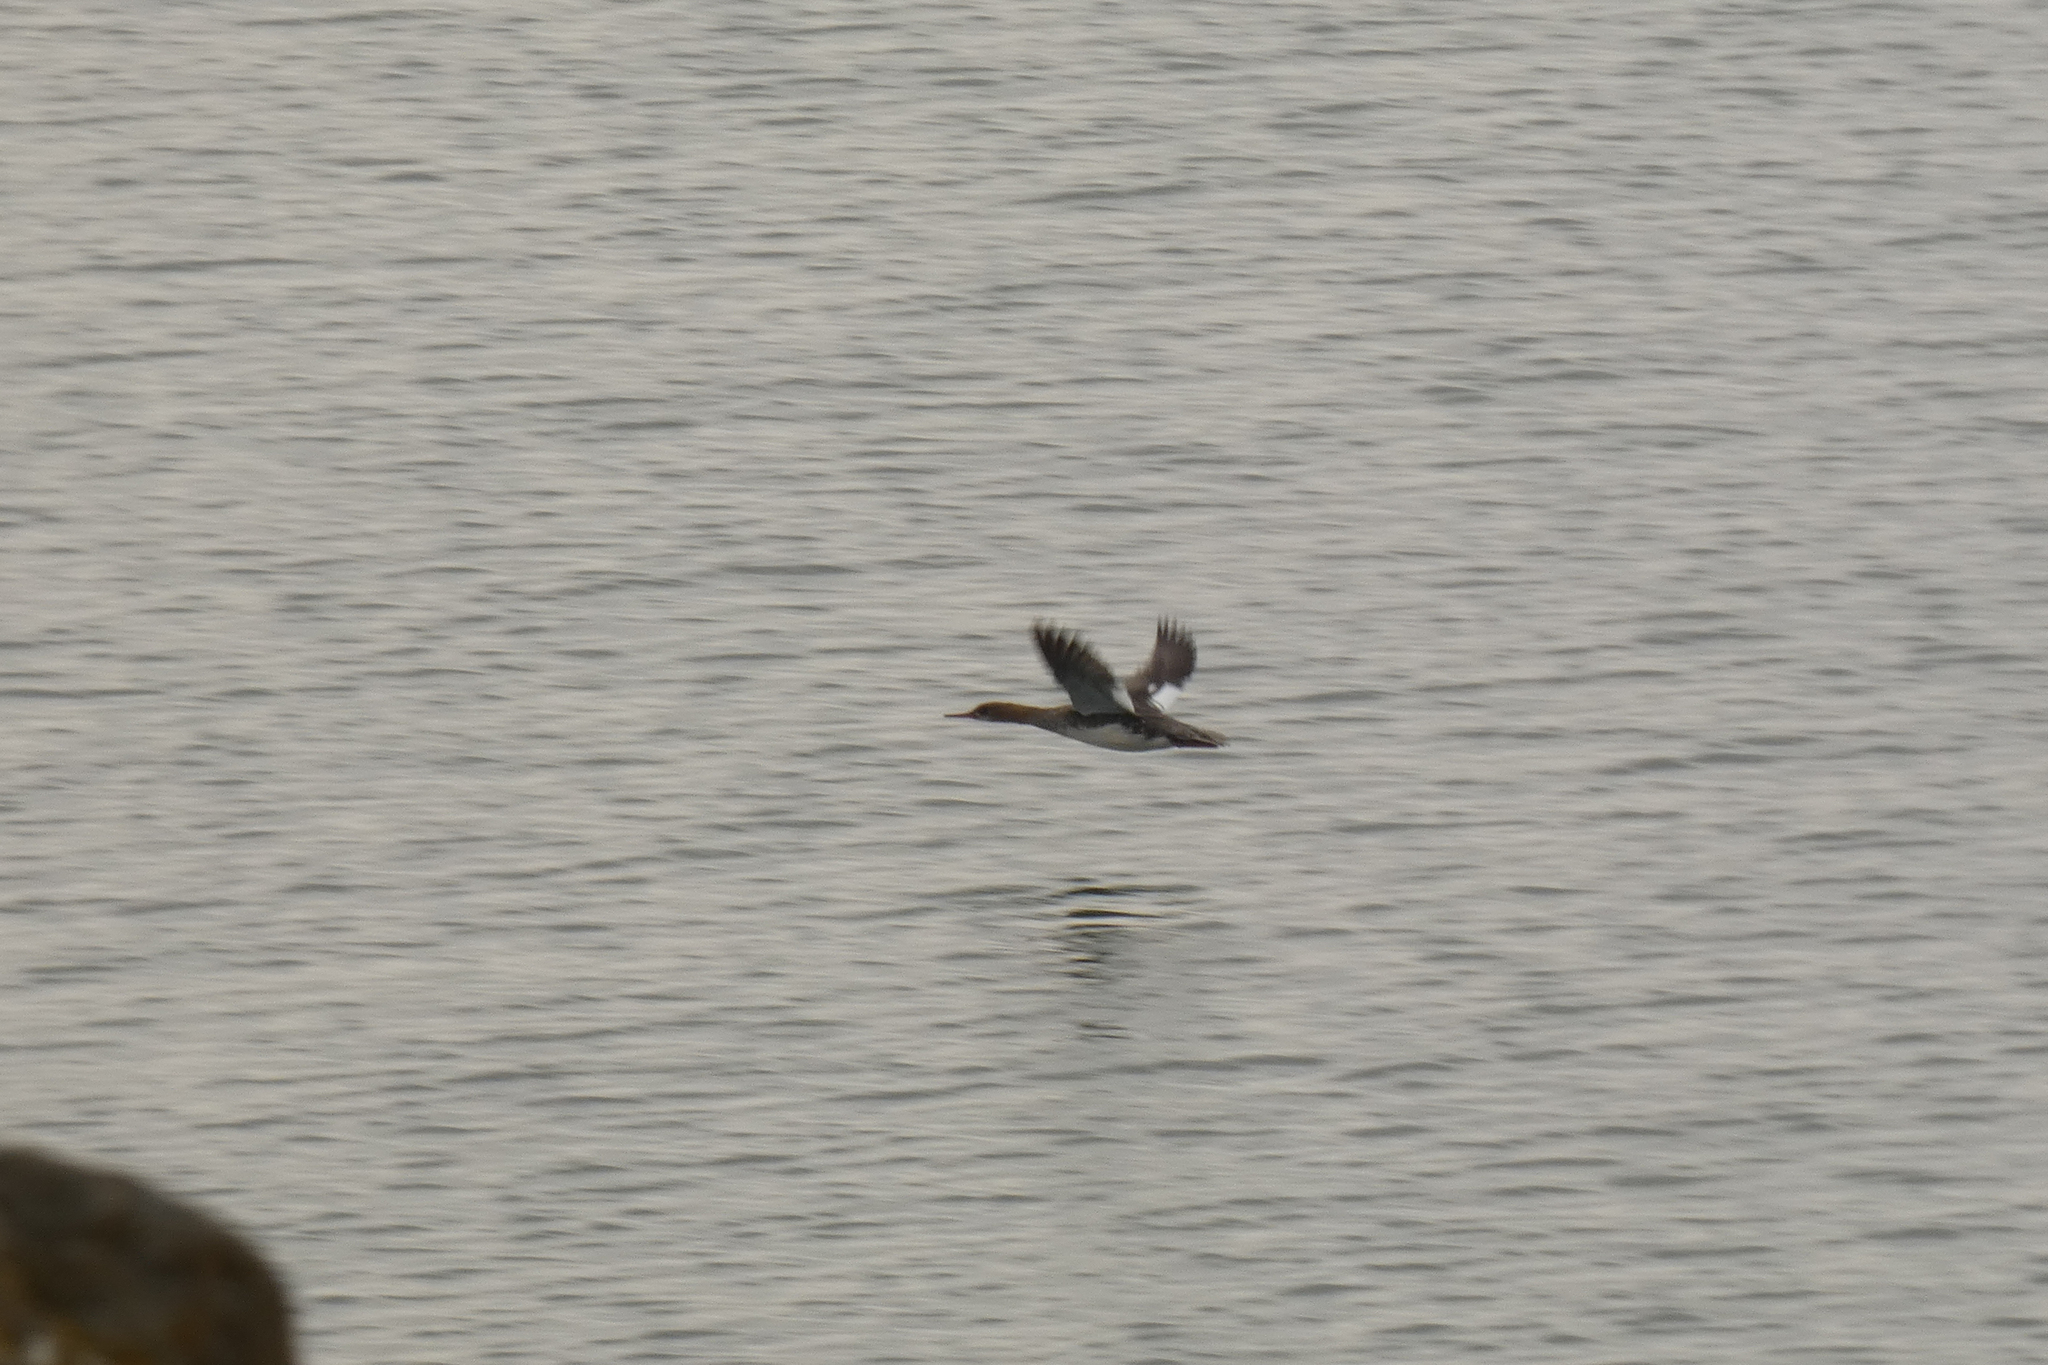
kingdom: Animalia
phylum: Chordata
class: Aves
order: Anseriformes
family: Anatidae
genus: Mergus
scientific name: Mergus serrator
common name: Red-breasted merganser
